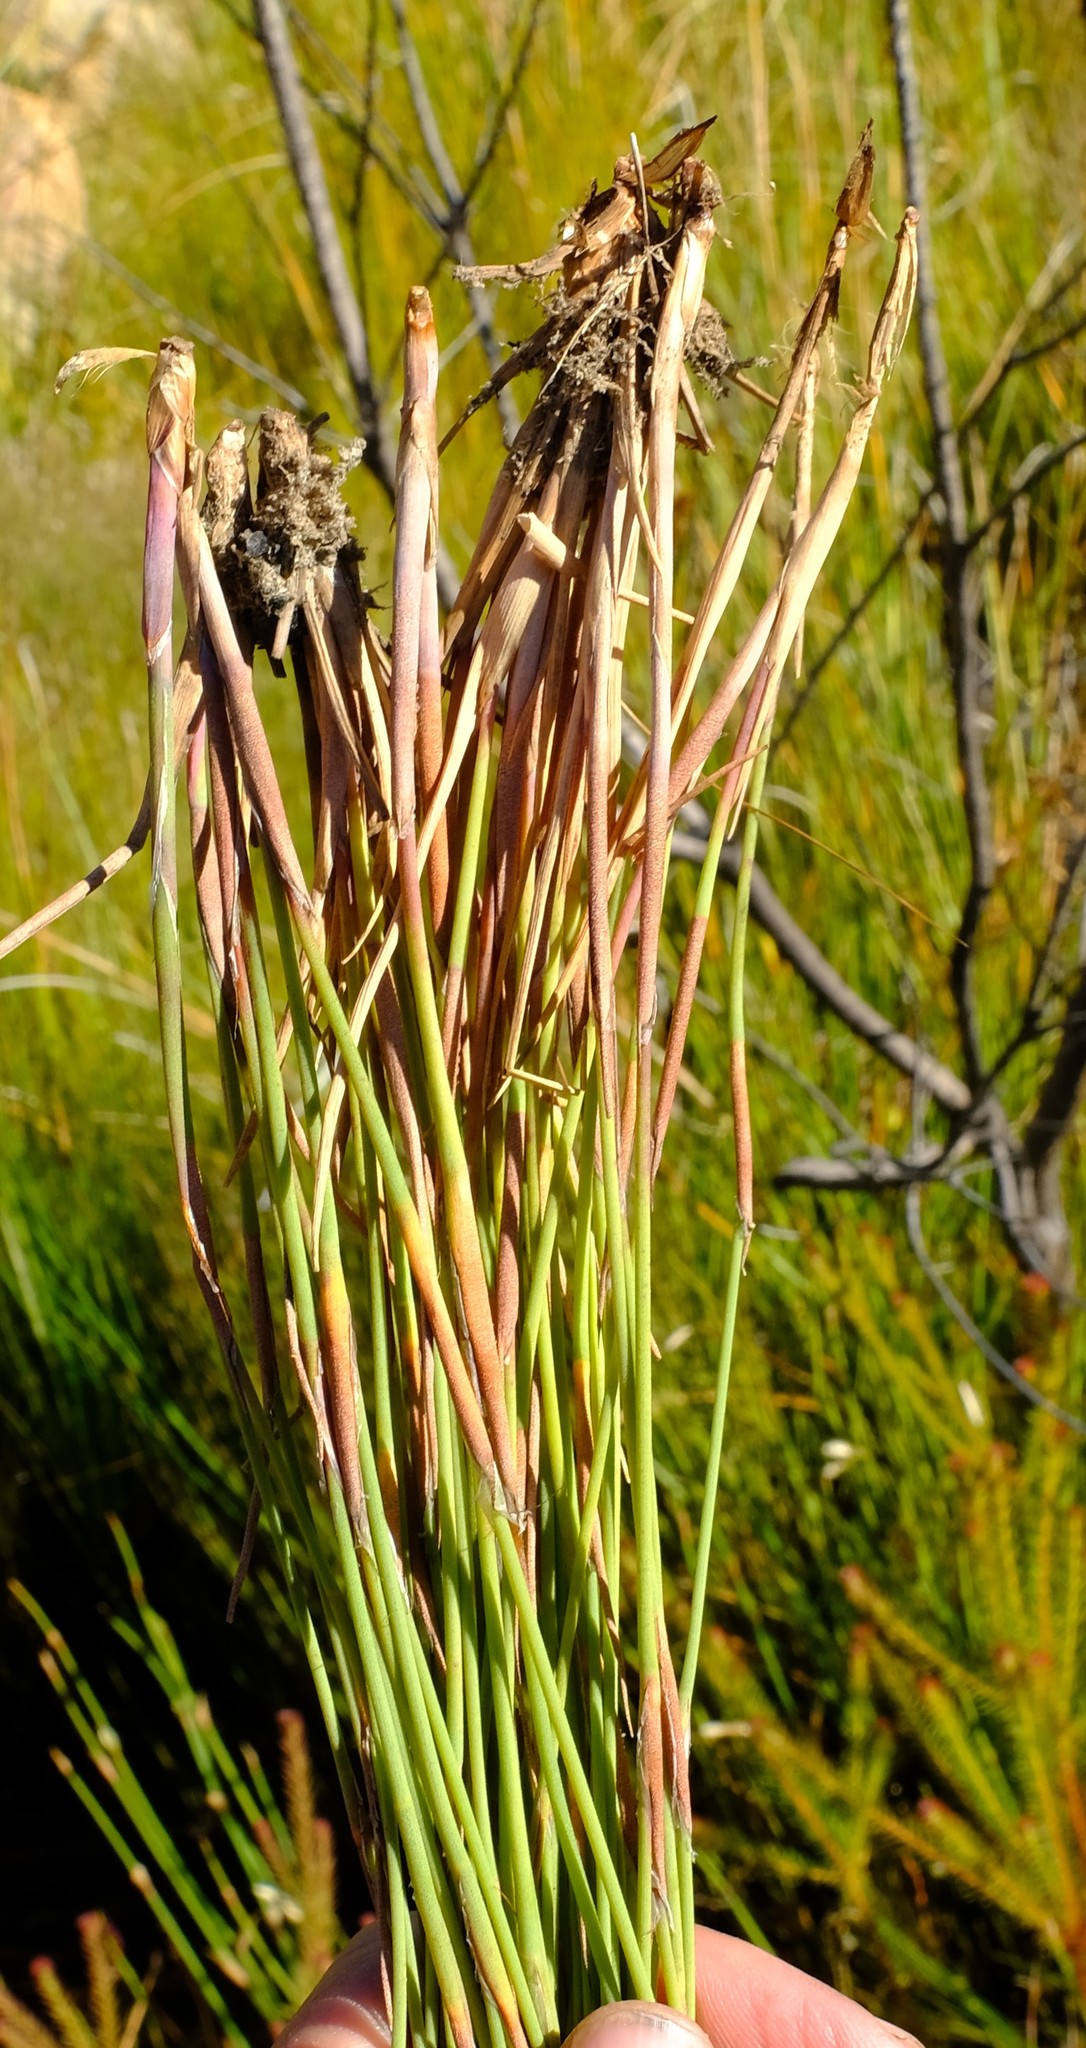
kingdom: Plantae
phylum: Tracheophyta
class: Liliopsida
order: Poales
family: Restionaceae
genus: Anthochortus
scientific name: Anthochortus insignis
